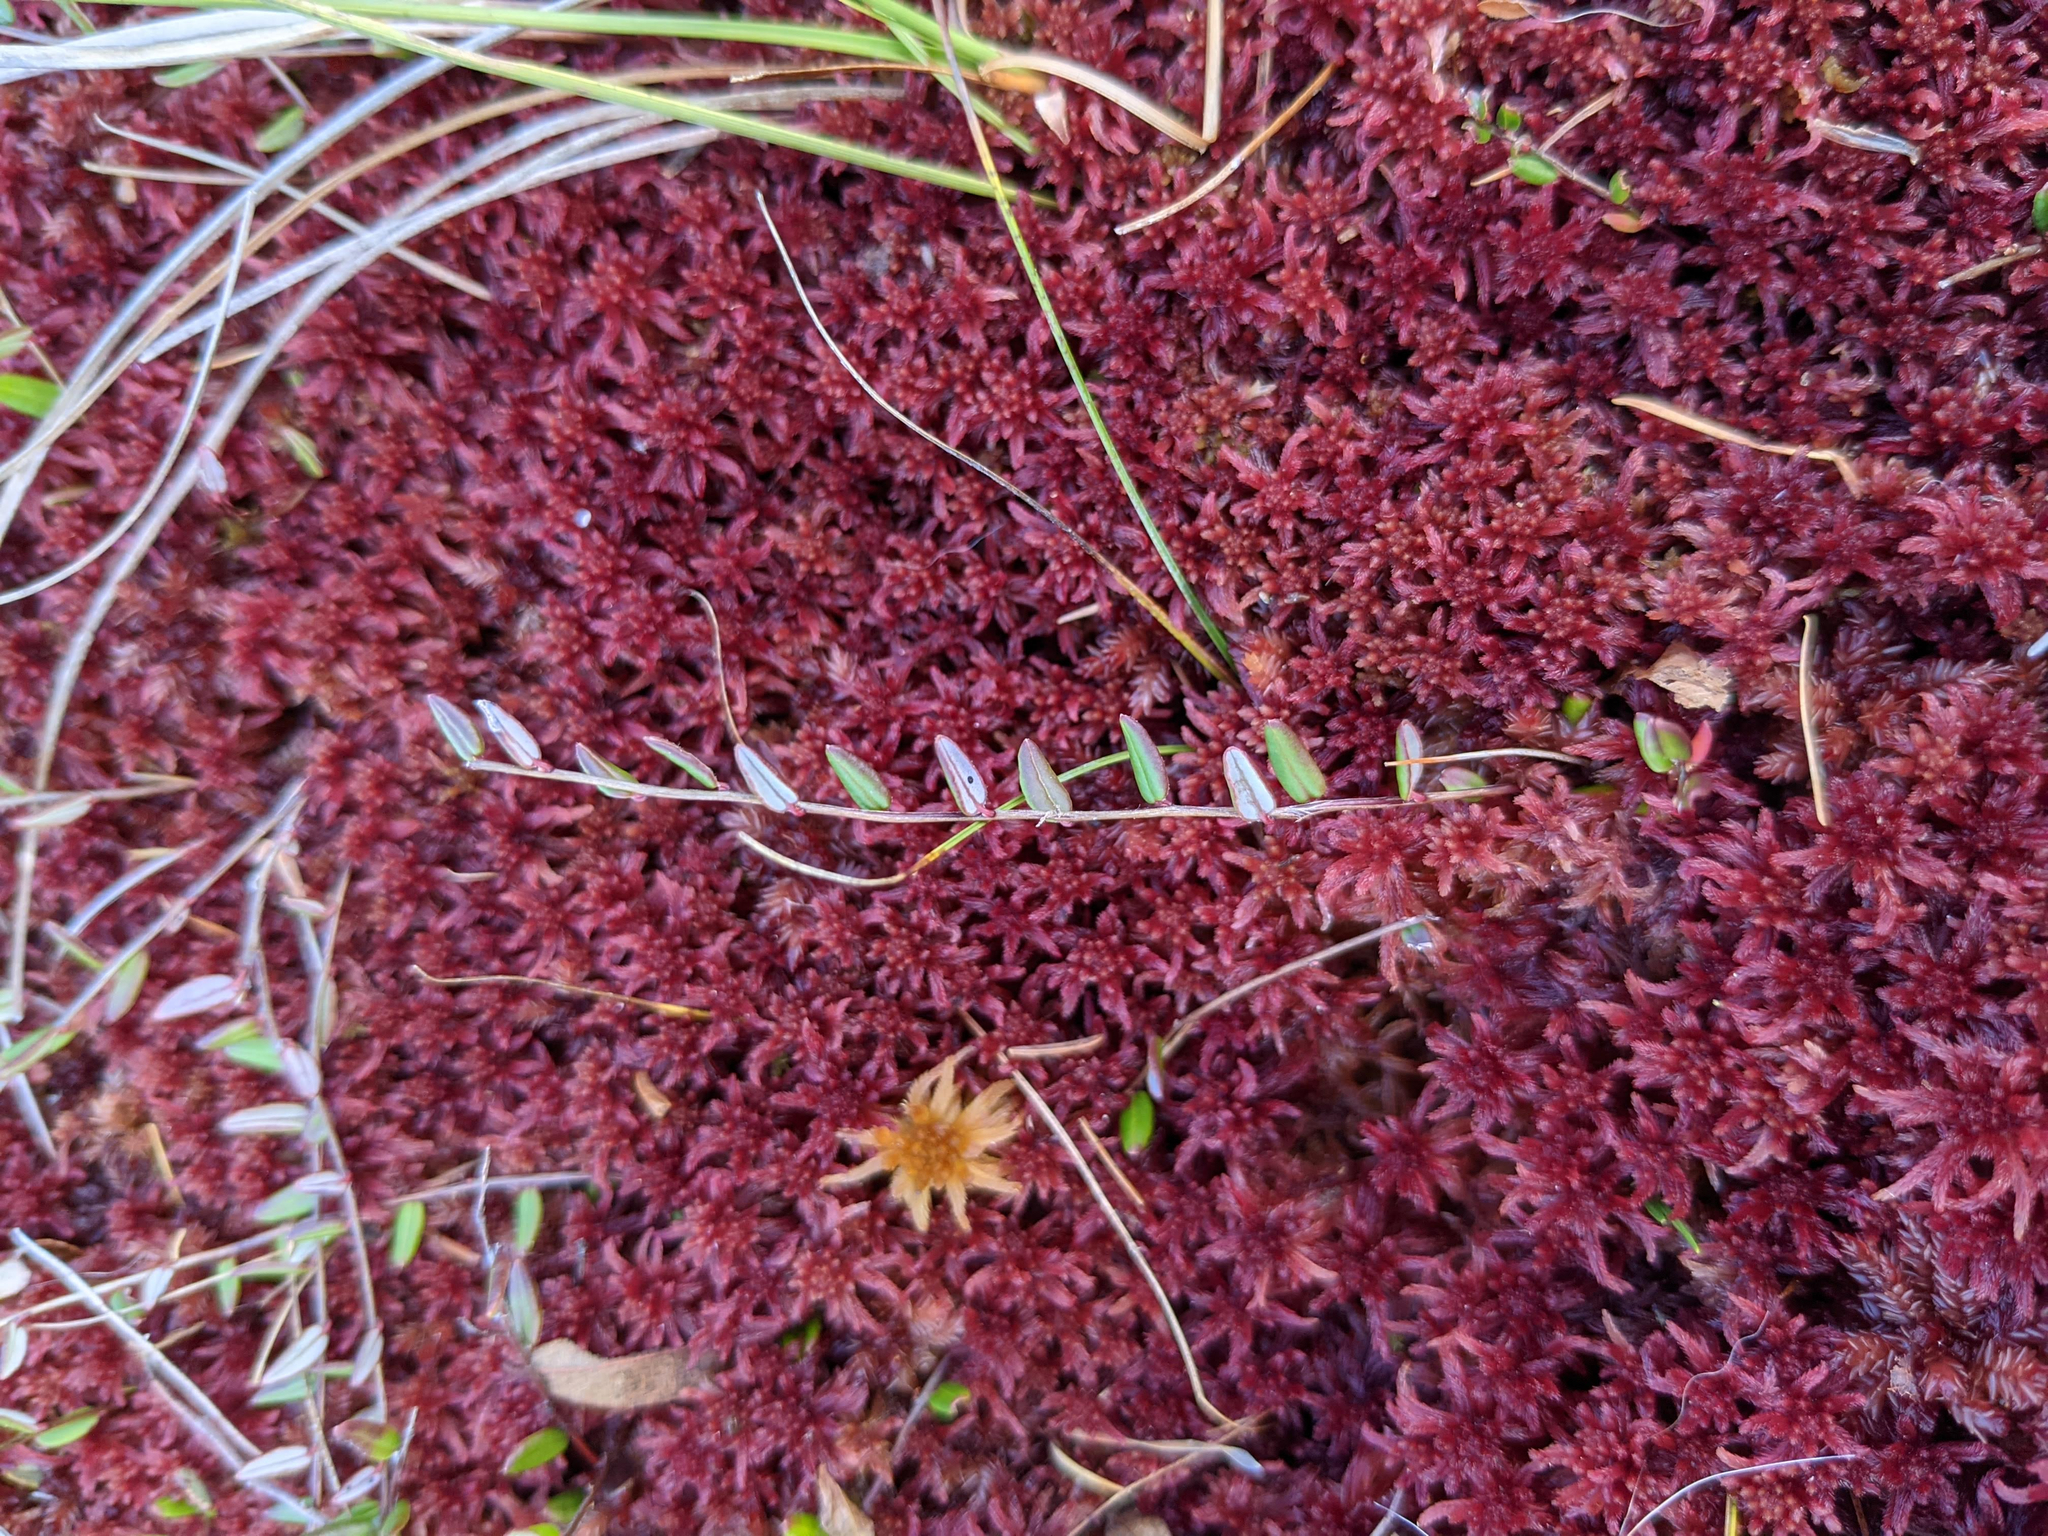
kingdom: Plantae
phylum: Tracheophyta
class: Magnoliopsida
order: Ericales
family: Ericaceae
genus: Vaccinium
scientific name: Vaccinium oxycoccos
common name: Cranberry
